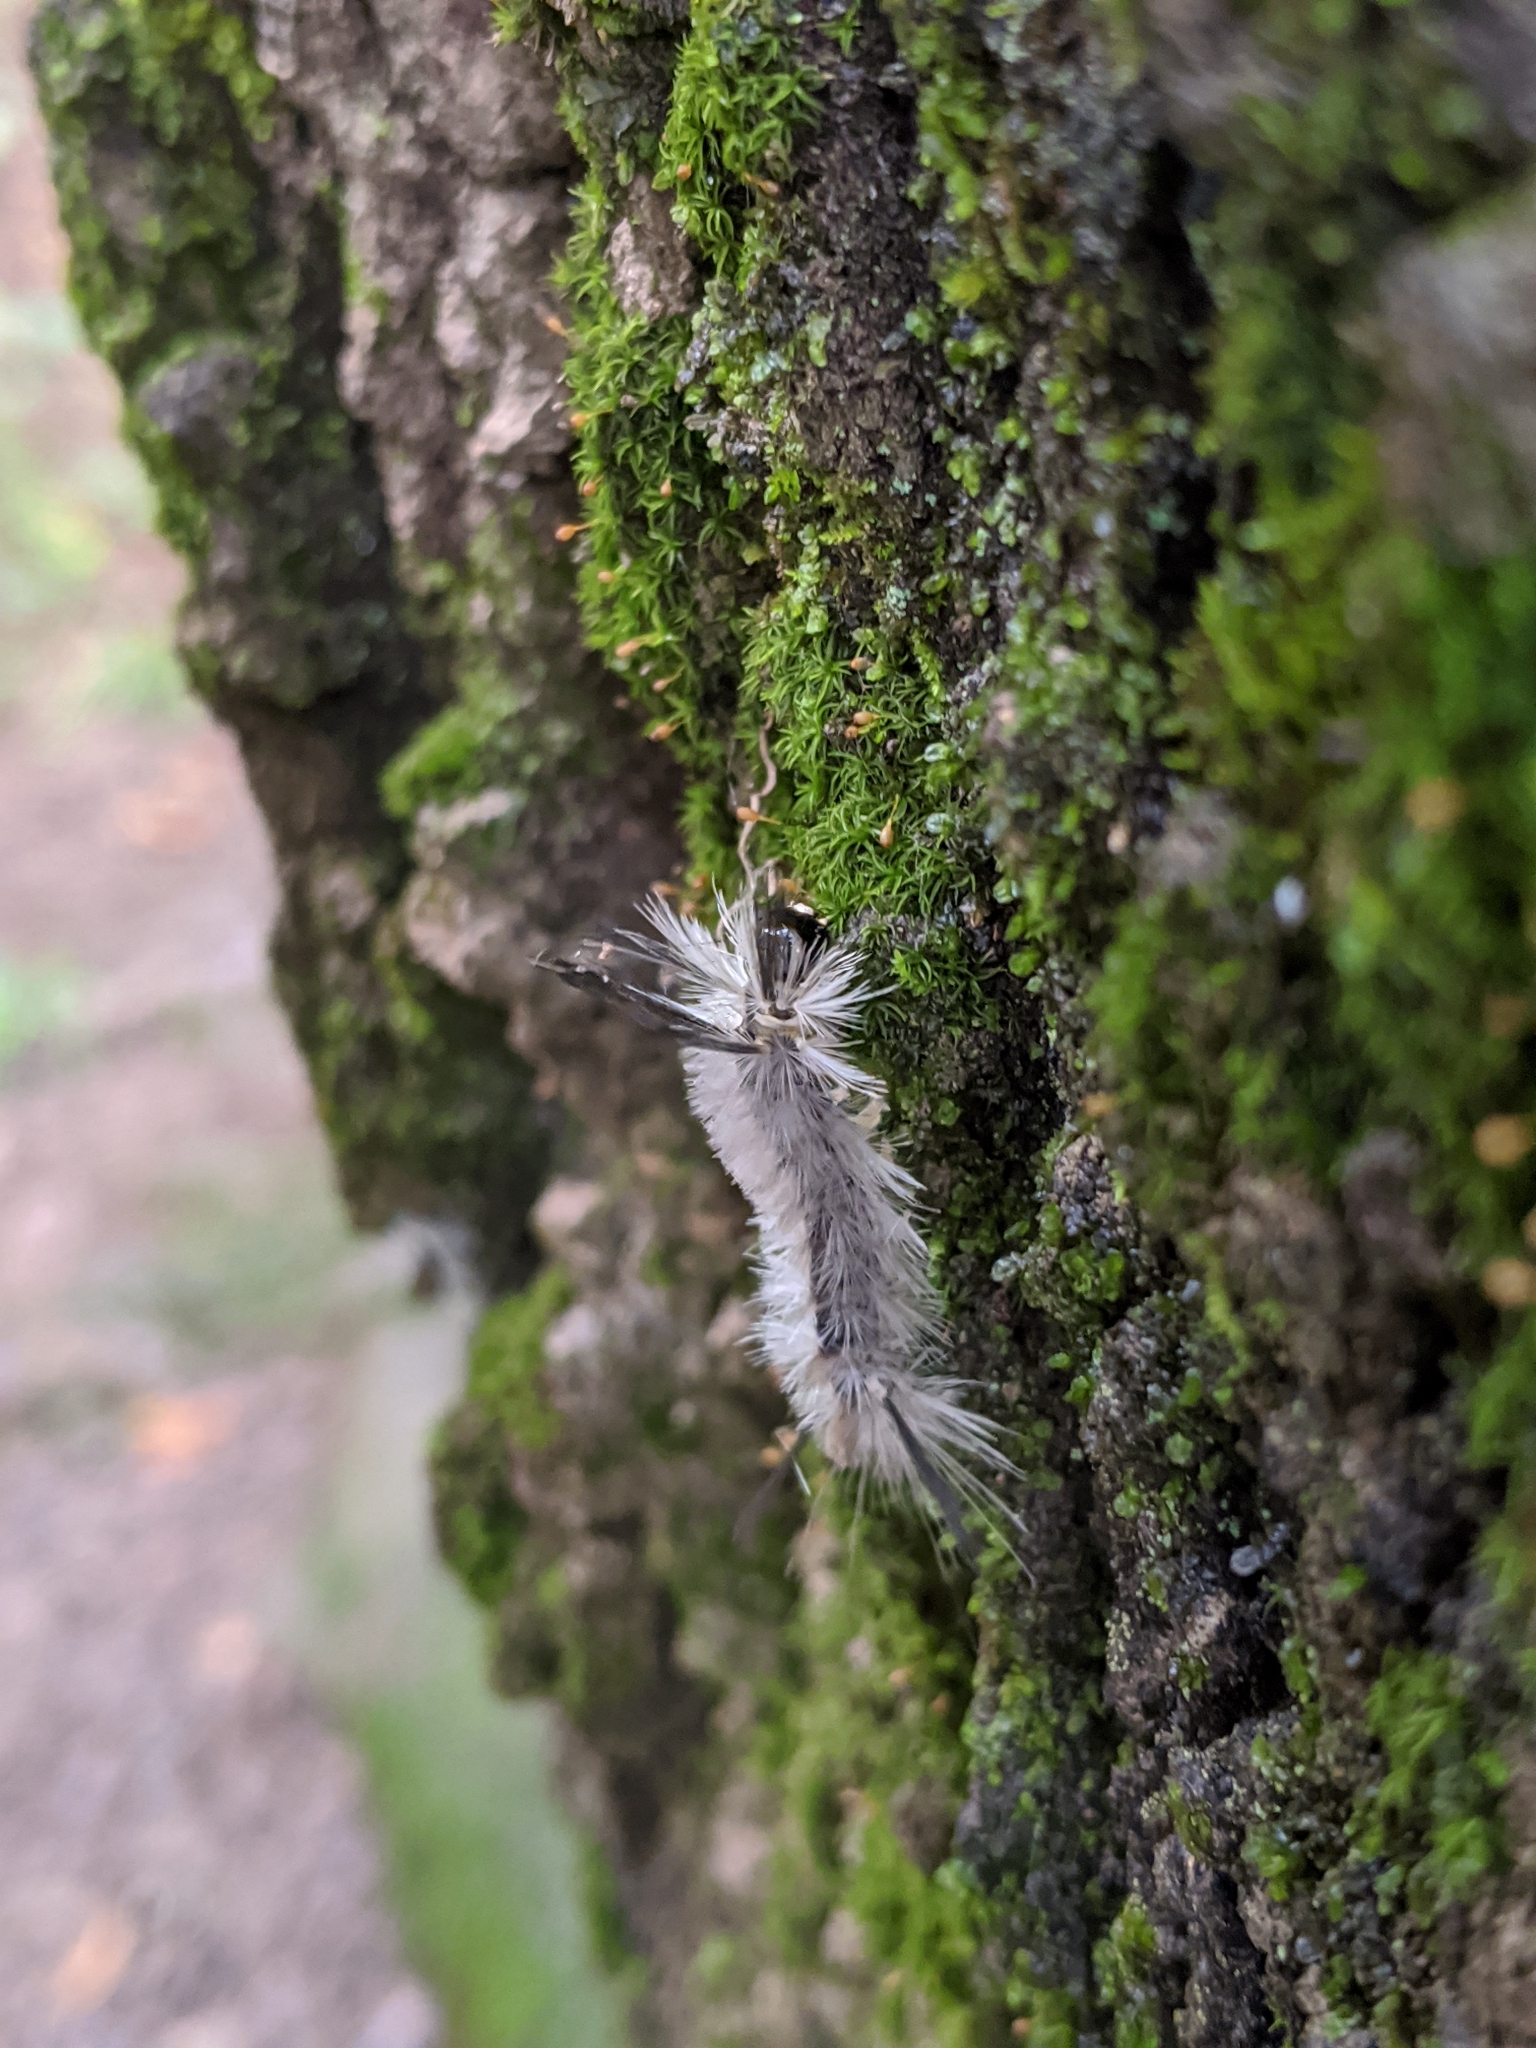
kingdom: Animalia
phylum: Arthropoda
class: Insecta
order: Lepidoptera
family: Erebidae
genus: Halysidota
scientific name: Halysidota tessellaris
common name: Banded tussock moth
